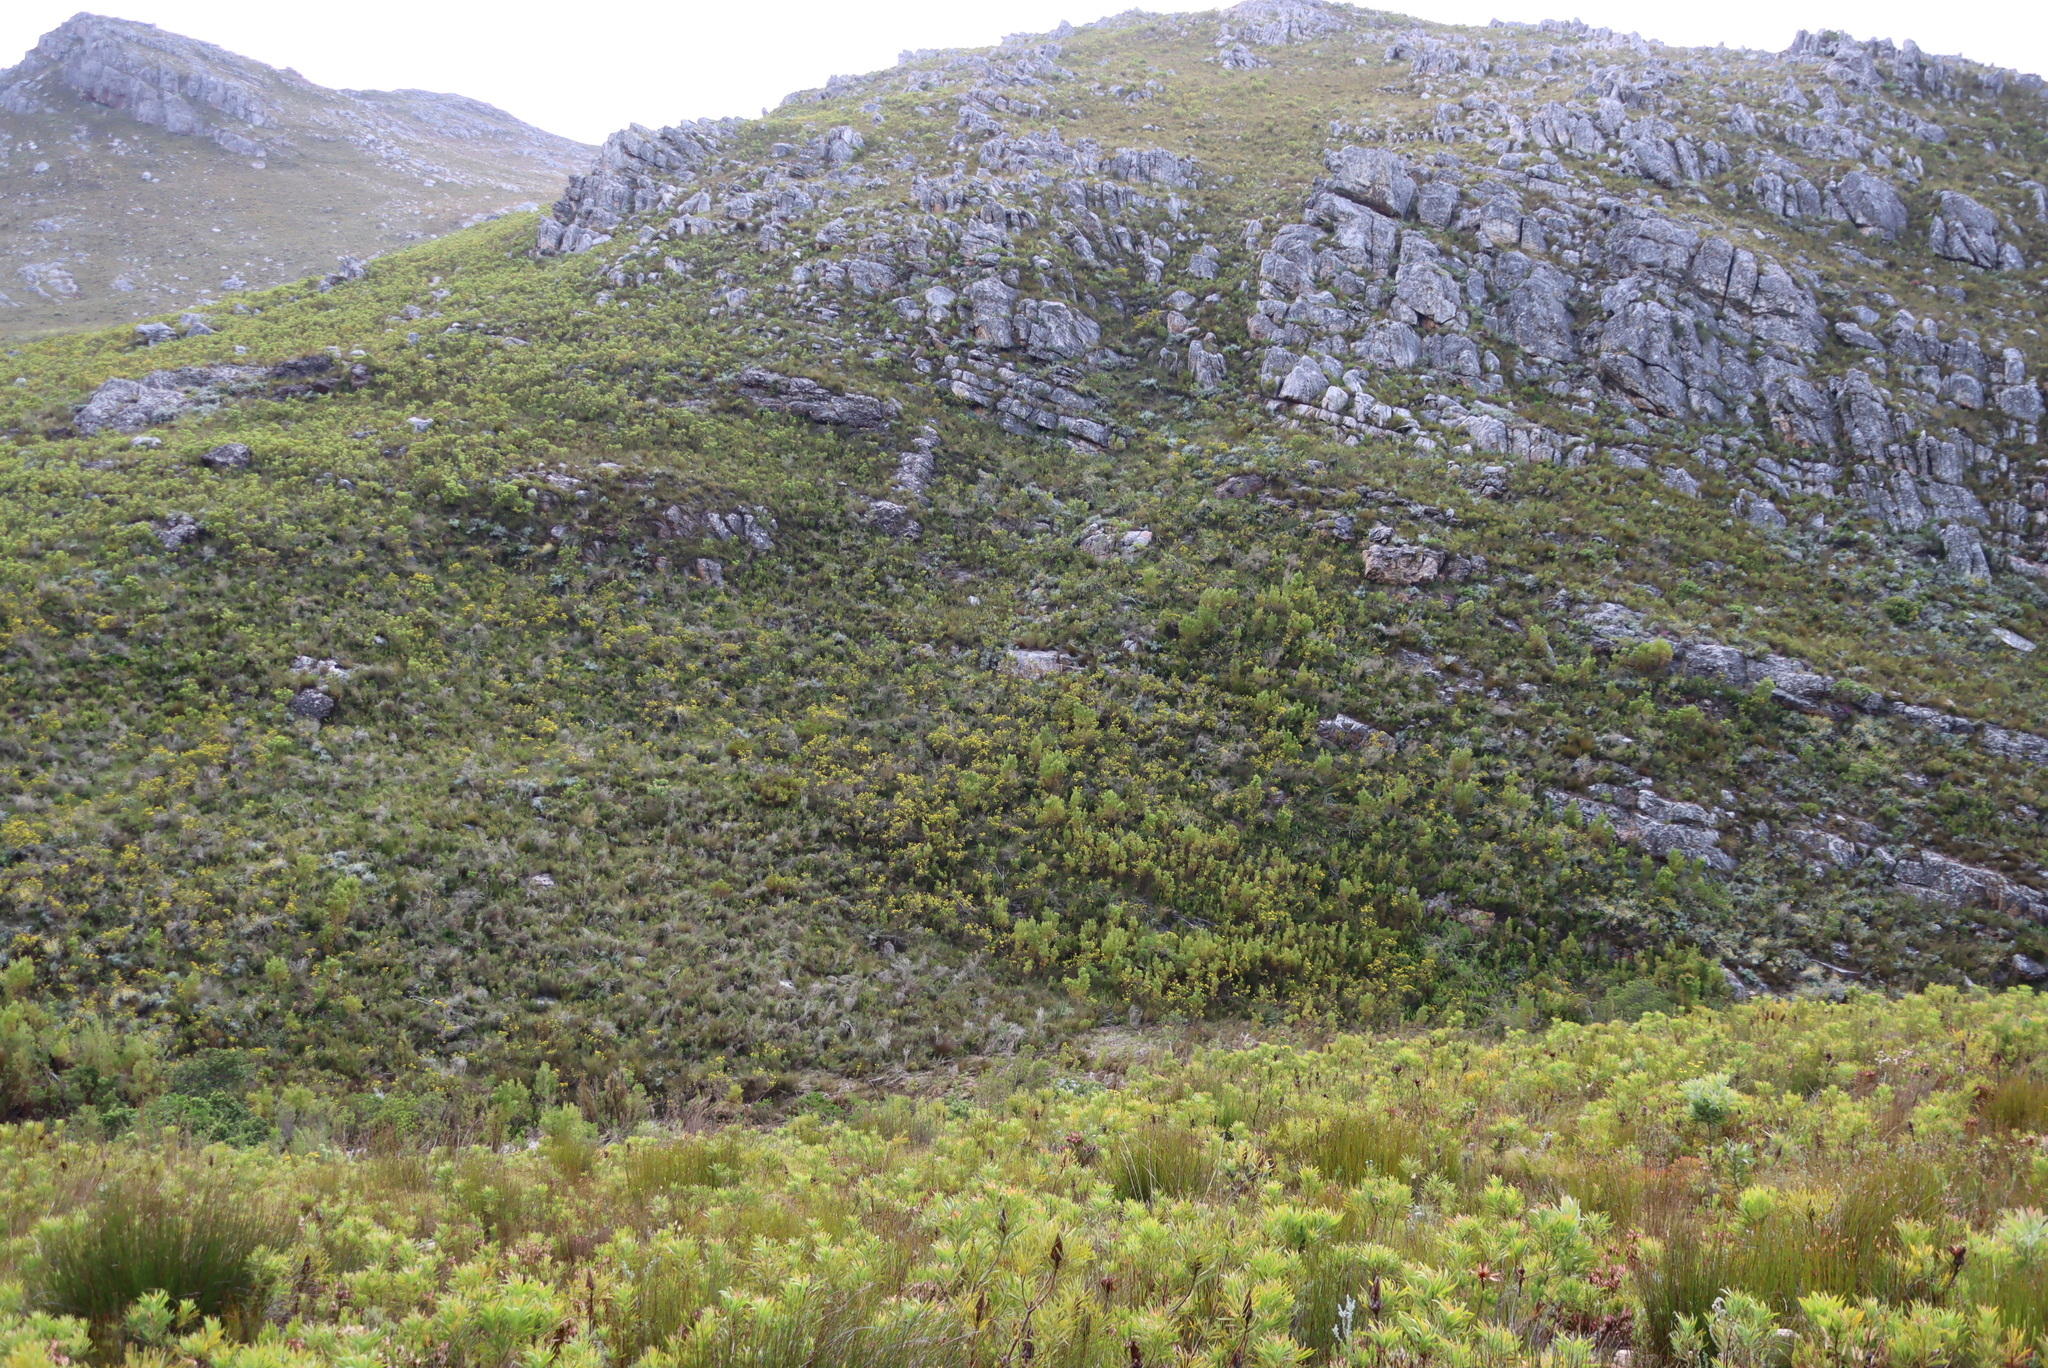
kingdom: Plantae
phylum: Tracheophyta
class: Magnoliopsida
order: Proteales
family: Proteaceae
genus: Protea
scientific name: Protea repens
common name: Sugarbush
